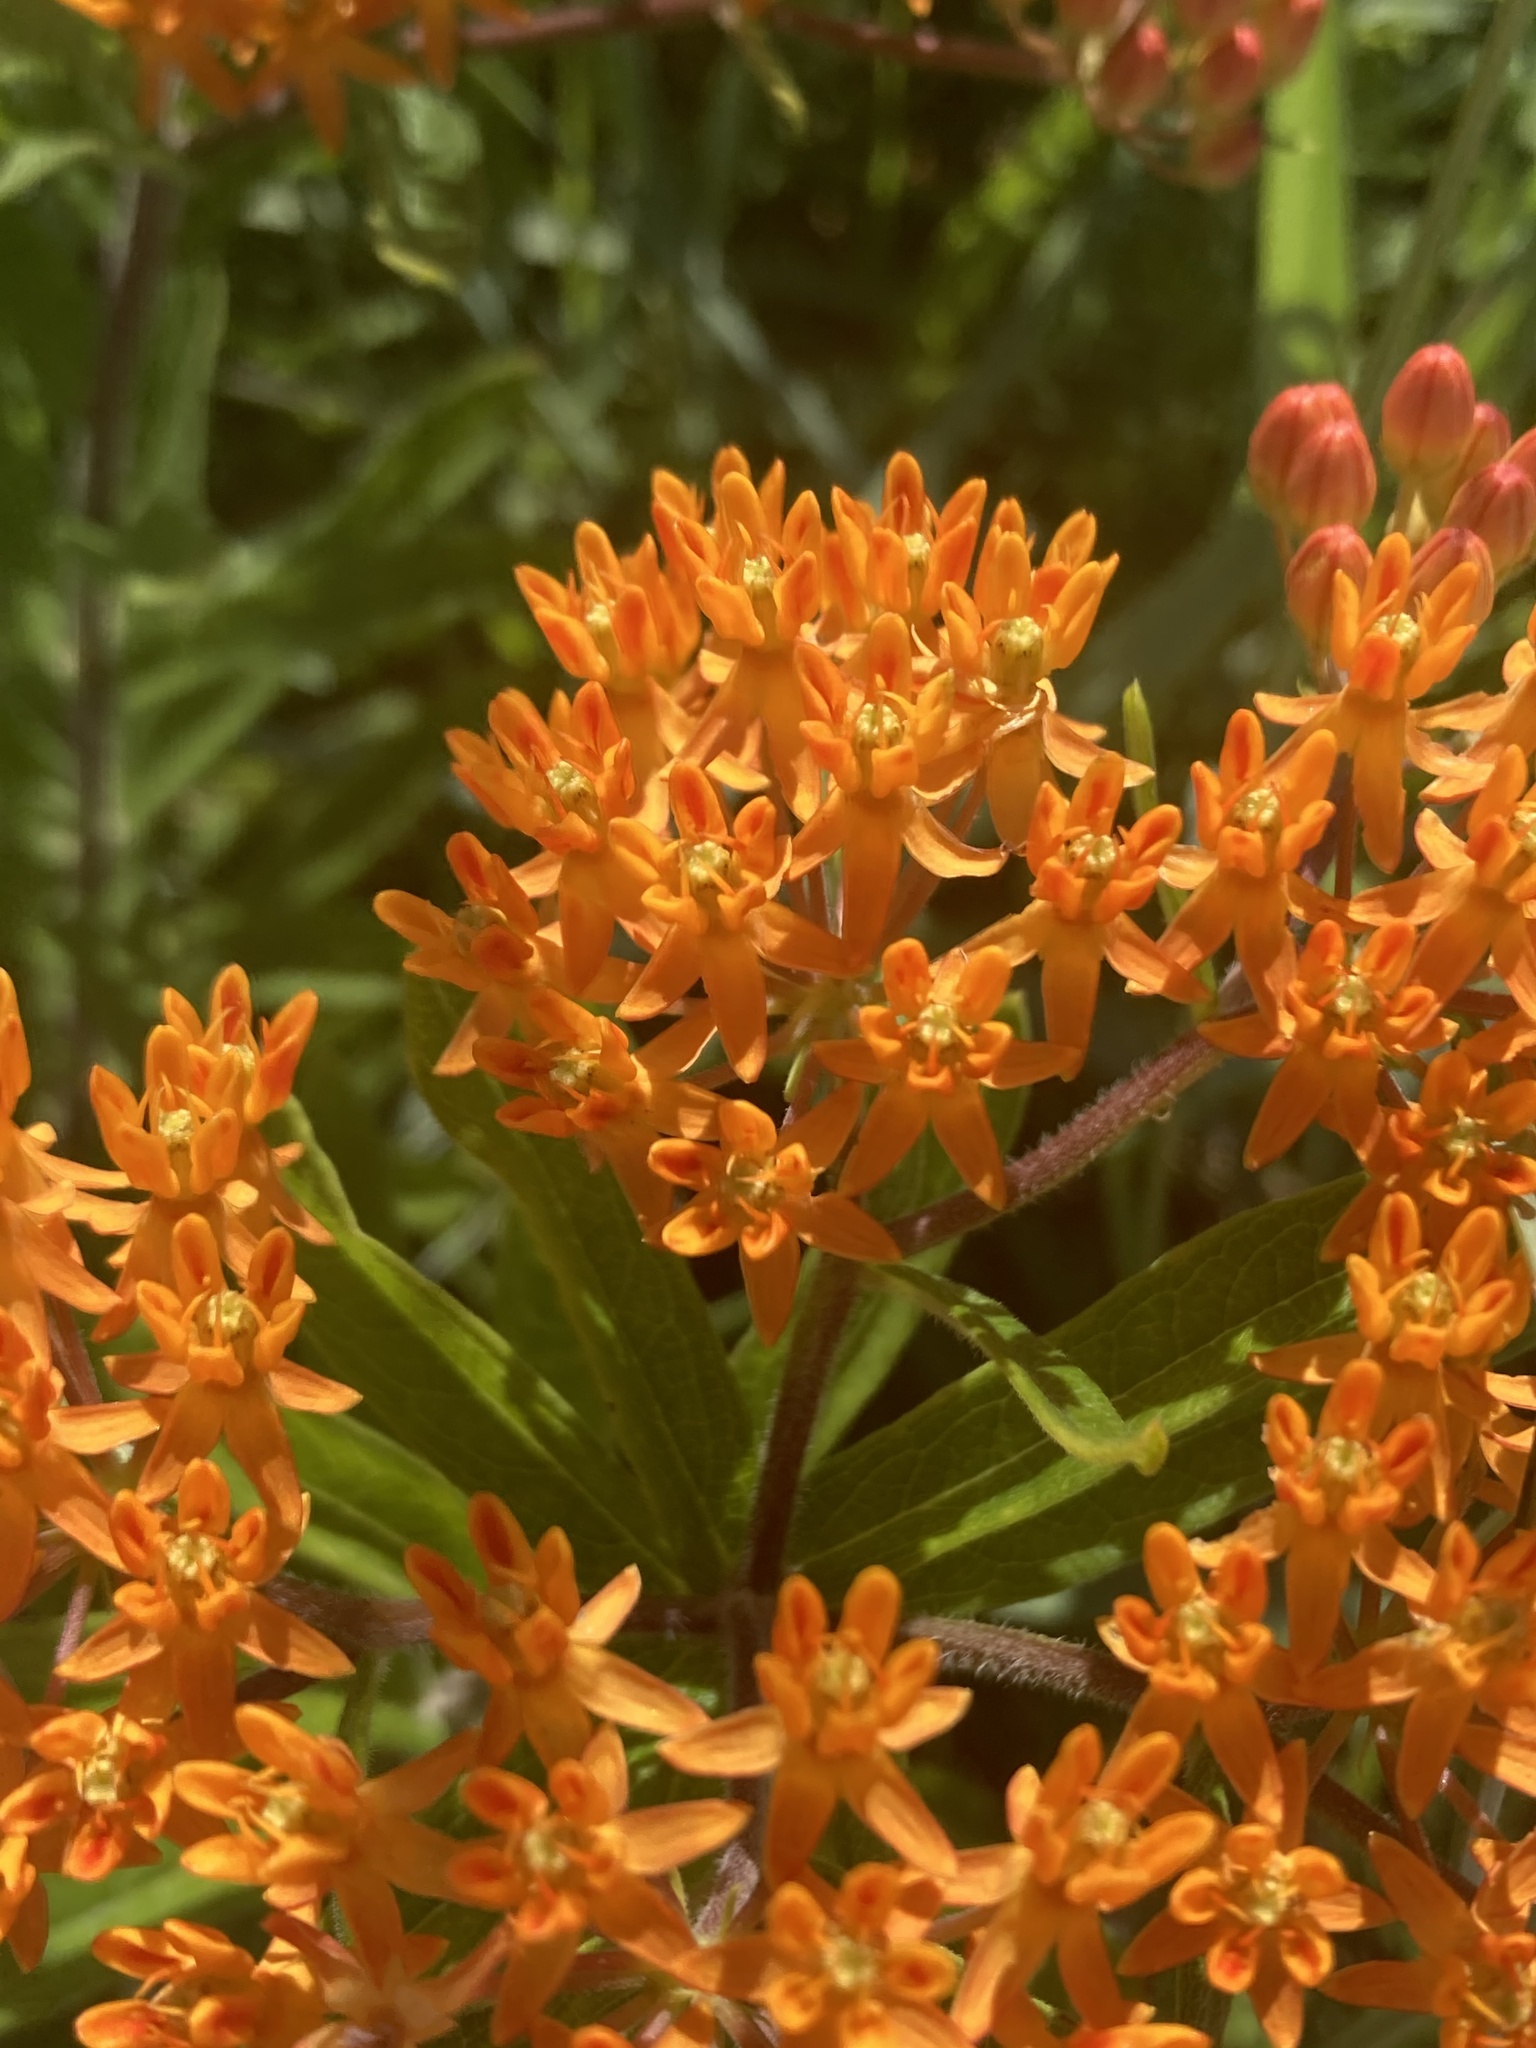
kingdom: Plantae
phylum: Tracheophyta
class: Magnoliopsida
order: Gentianales
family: Apocynaceae
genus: Asclepias
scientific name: Asclepias tuberosa
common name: Butterfly milkweed
